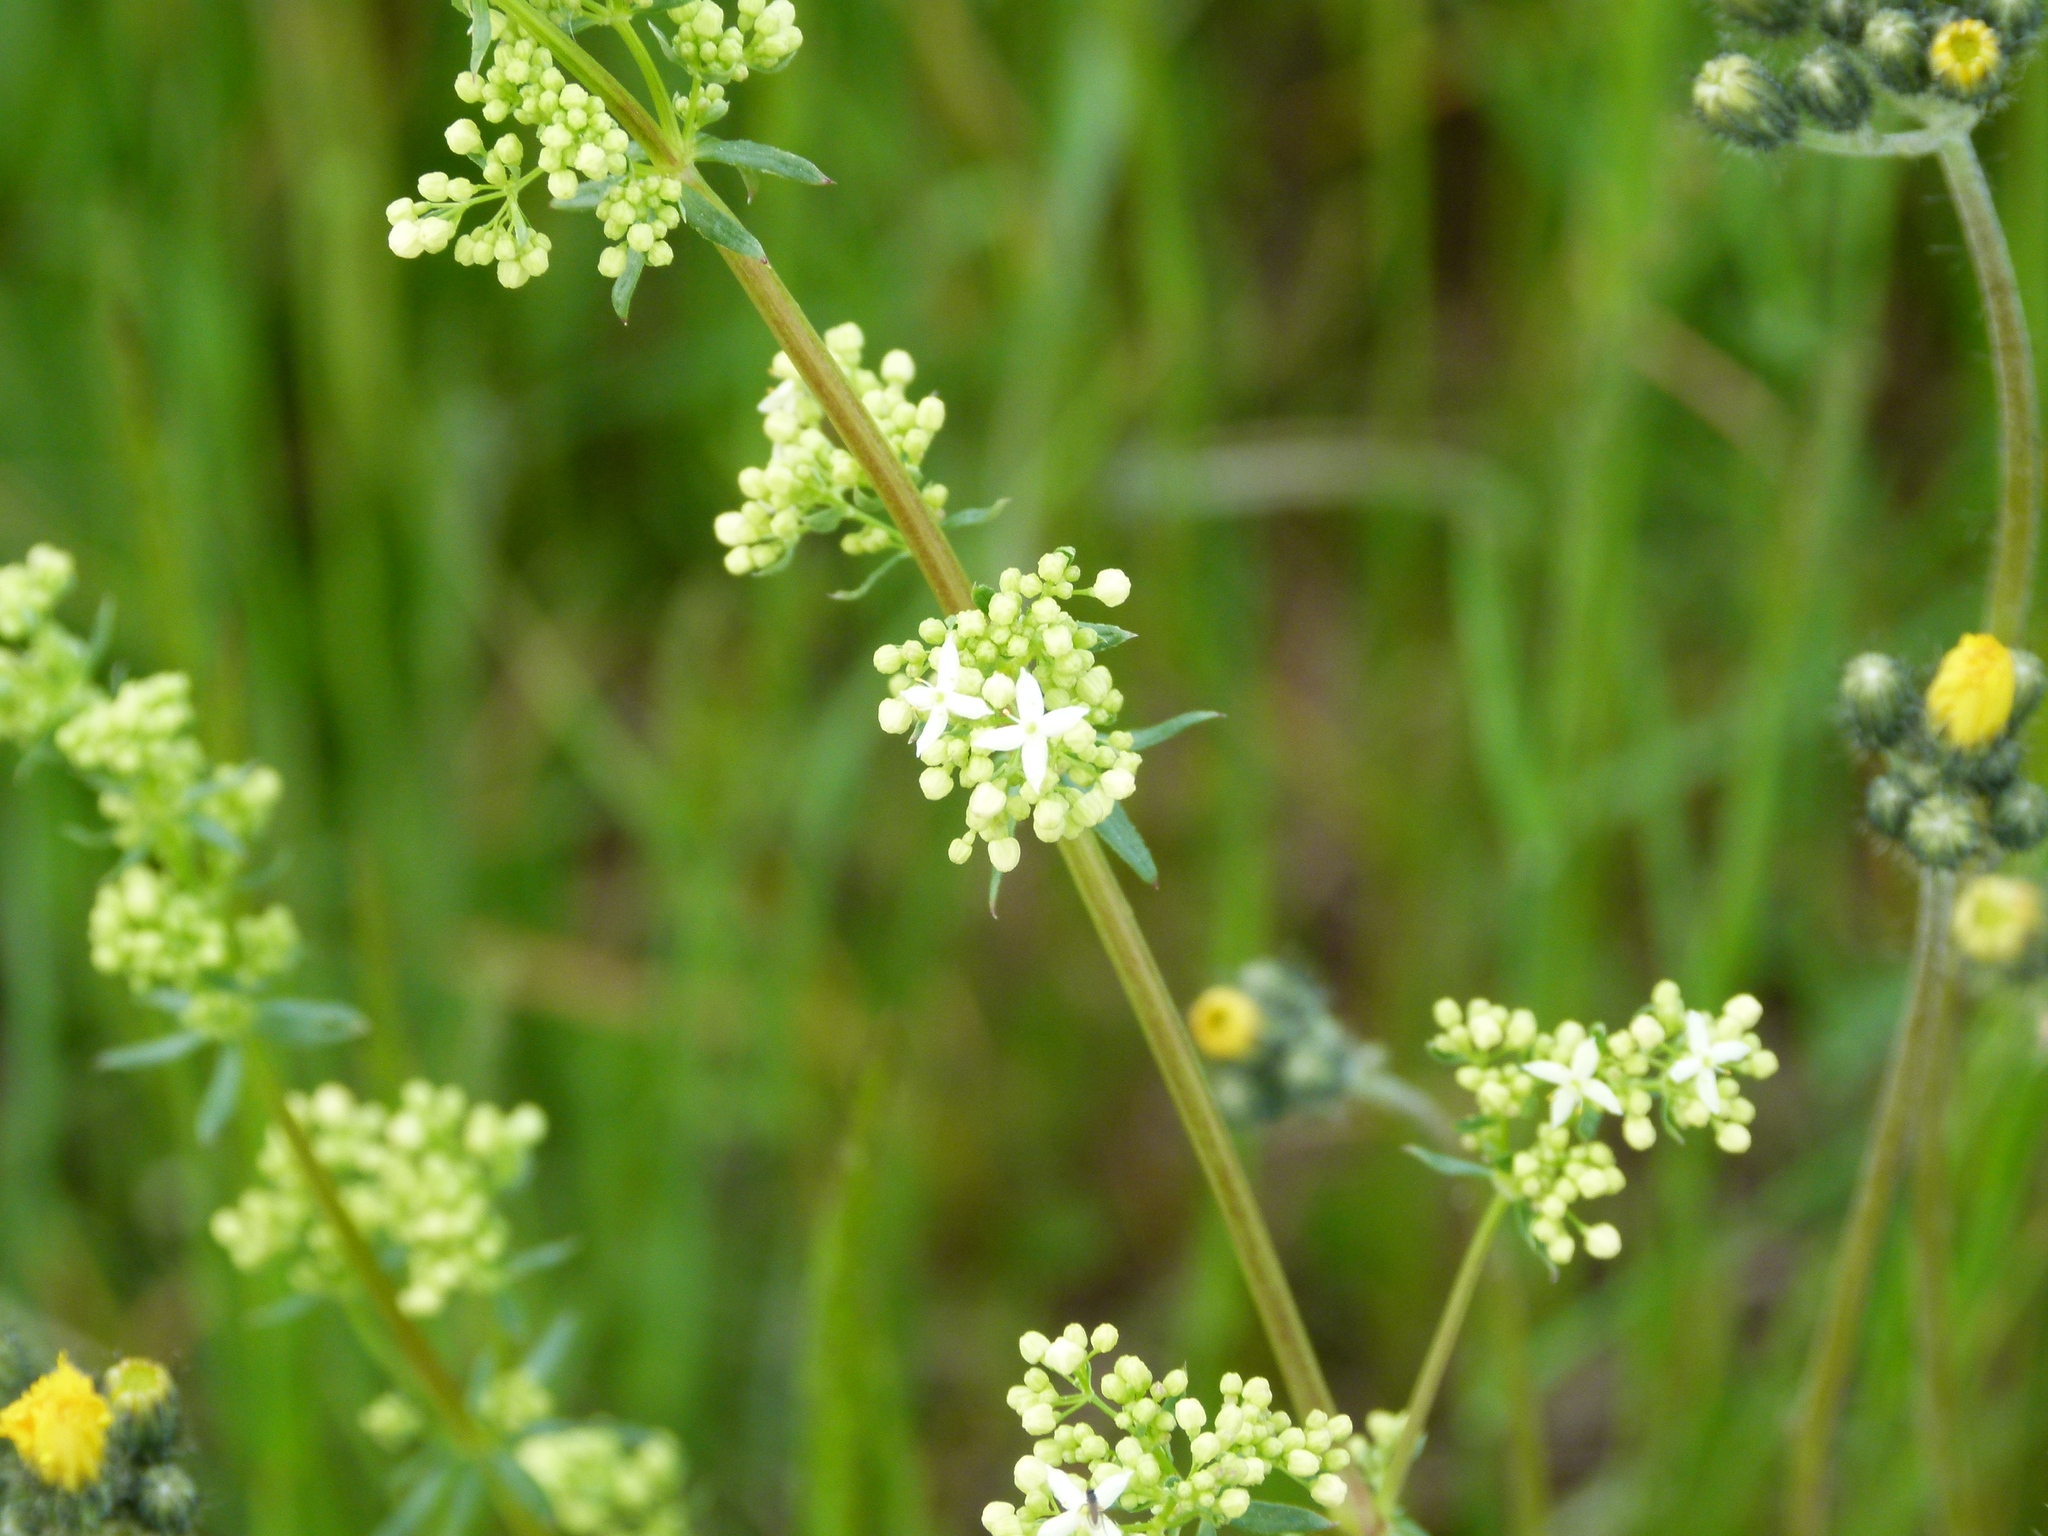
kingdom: Plantae
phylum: Tracheophyta
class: Magnoliopsida
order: Gentianales
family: Rubiaceae
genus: Galium
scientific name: Galium mollugo
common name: Hedge bedstraw
